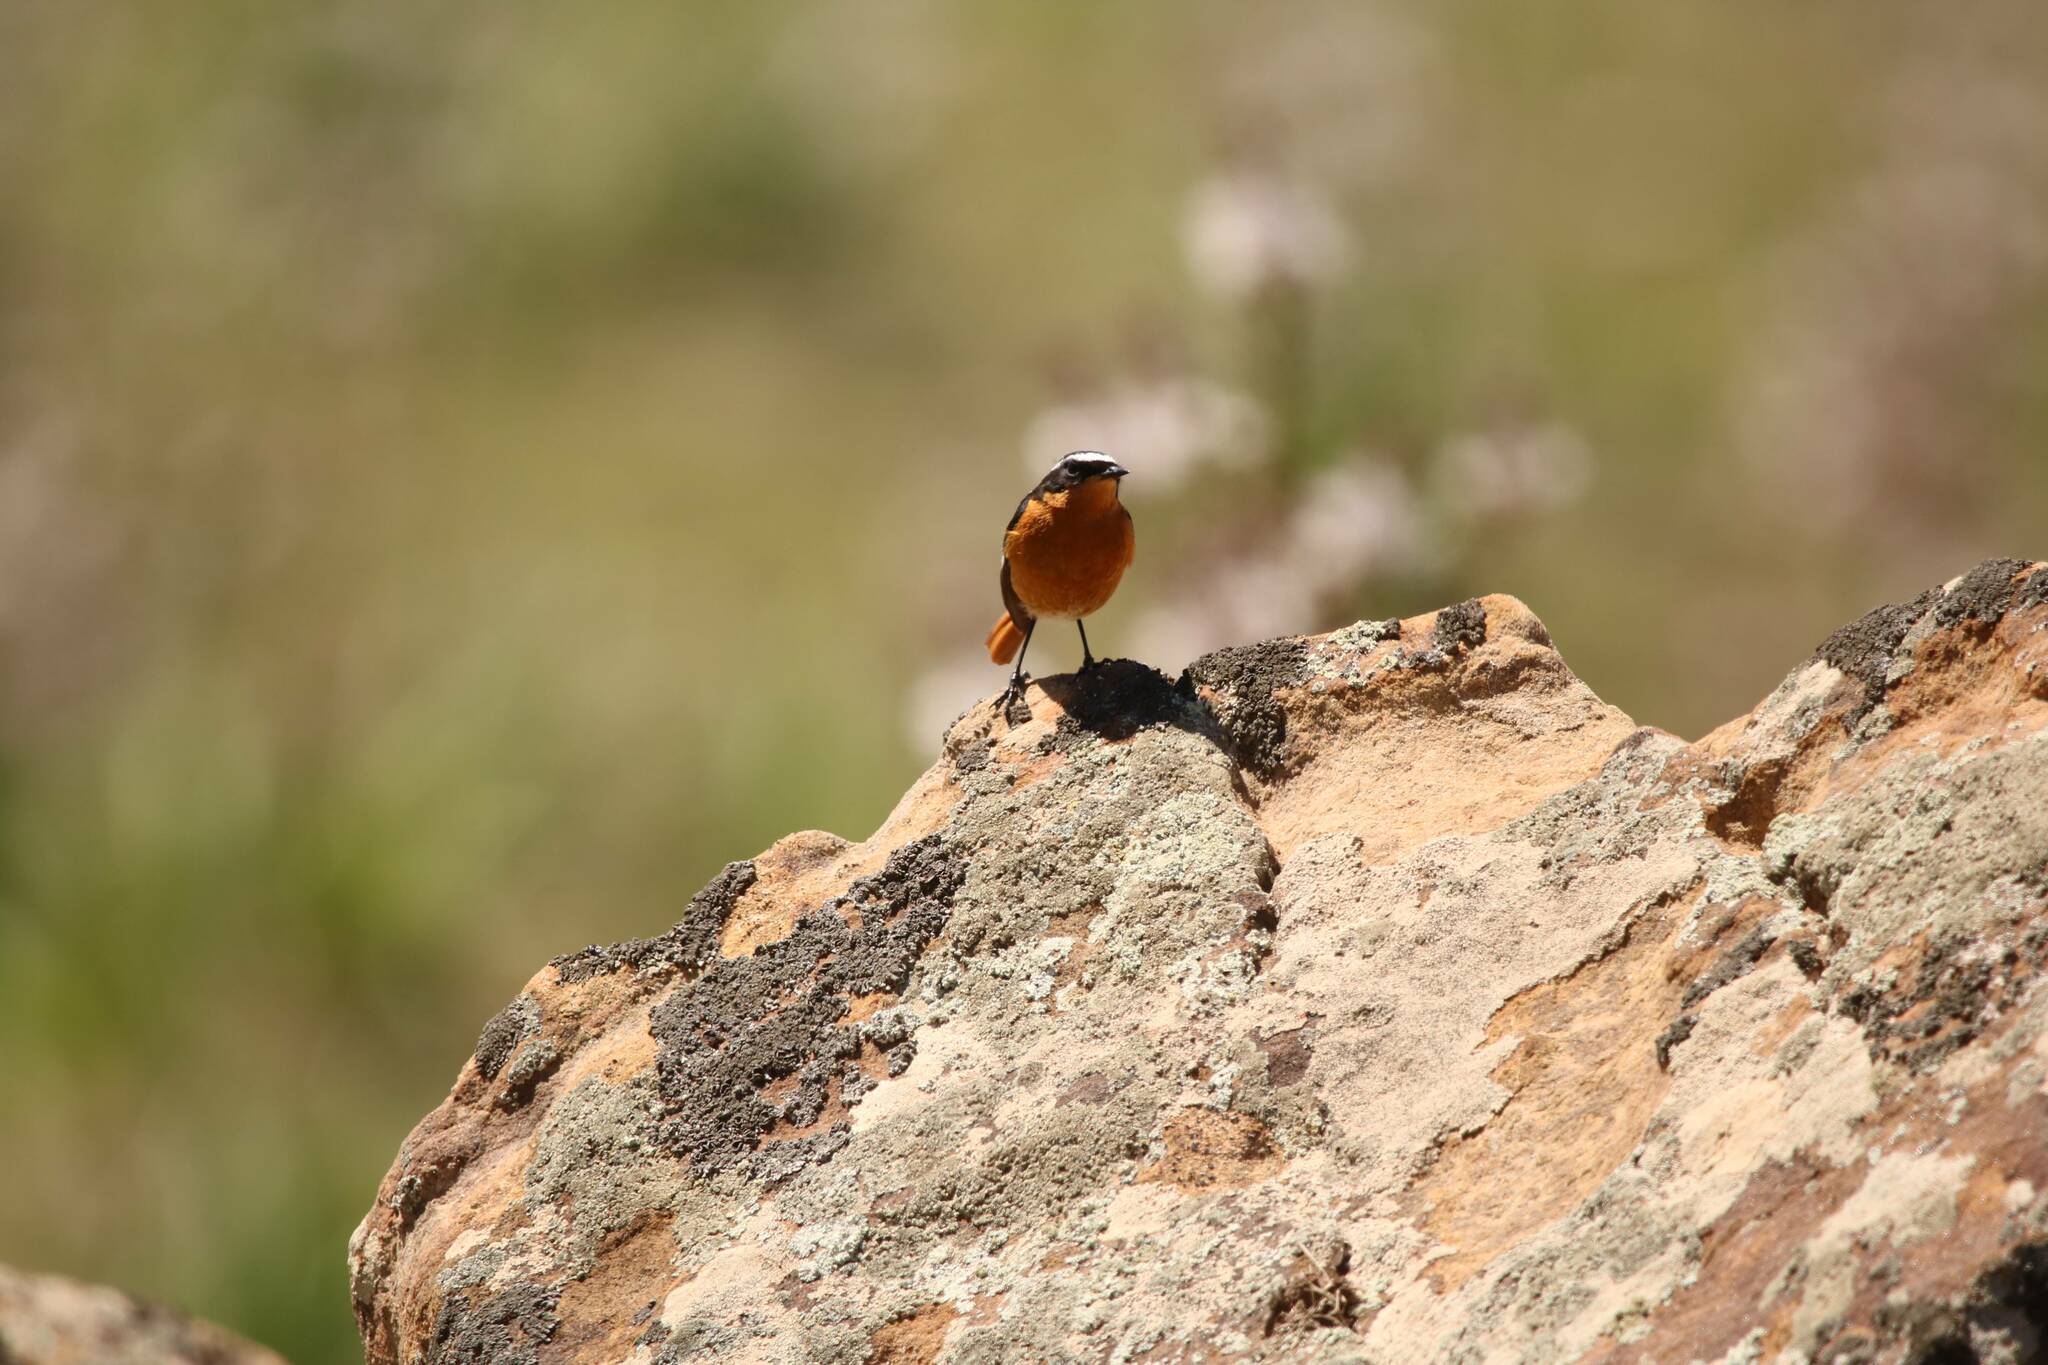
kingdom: Animalia
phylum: Chordata
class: Aves
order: Passeriformes
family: Muscicapidae
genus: Phoenicurus
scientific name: Phoenicurus moussieri
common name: Moussier's redstart
